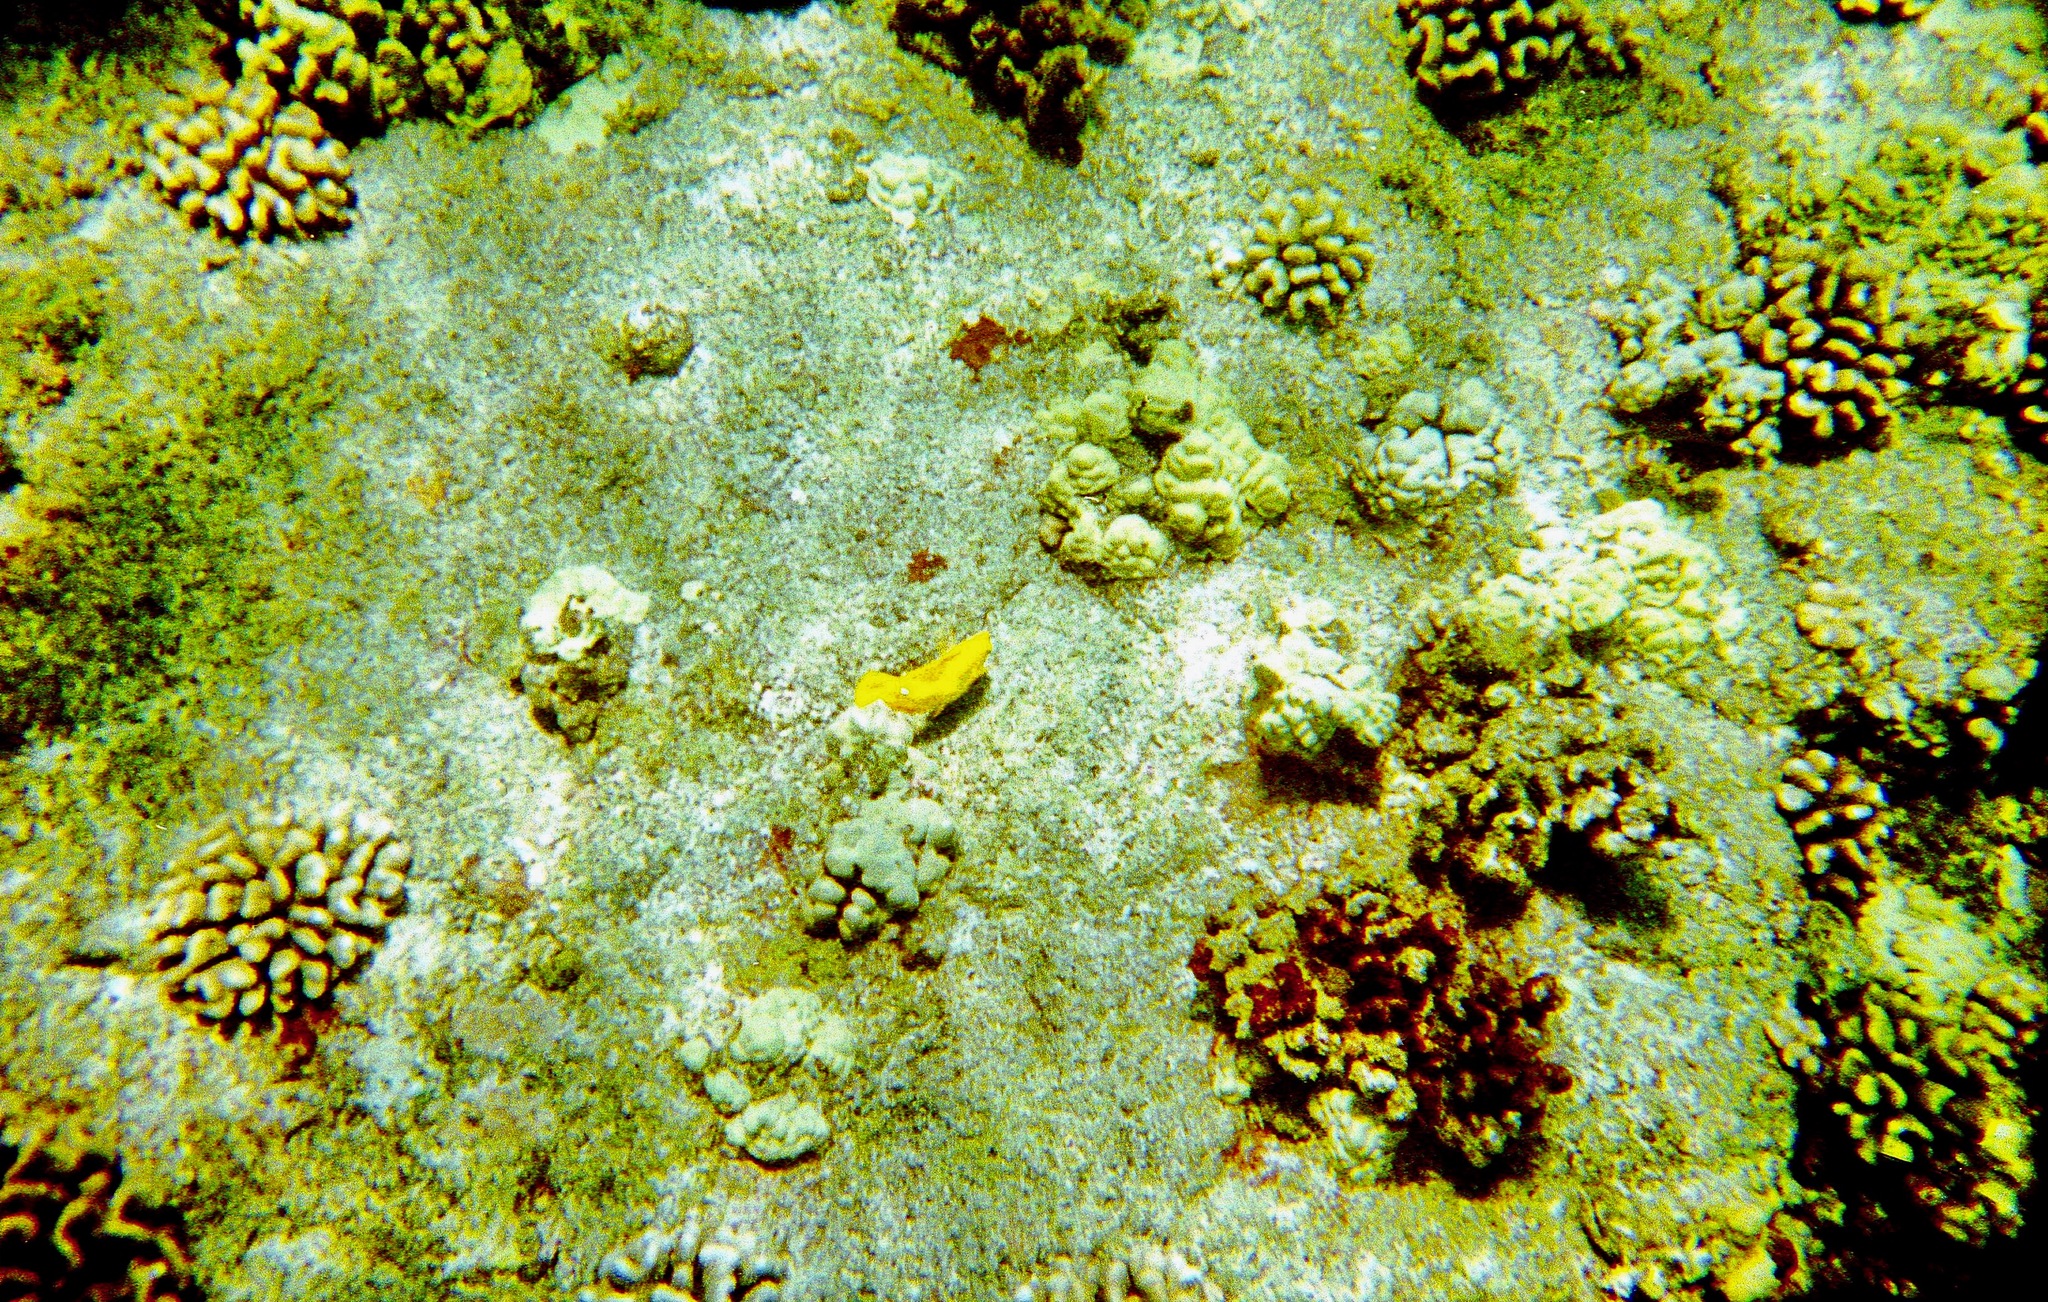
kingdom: Animalia
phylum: Chordata
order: Perciformes
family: Acanthuridae
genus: Zebrasoma
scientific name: Zebrasoma flavescens
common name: Yellow tang
